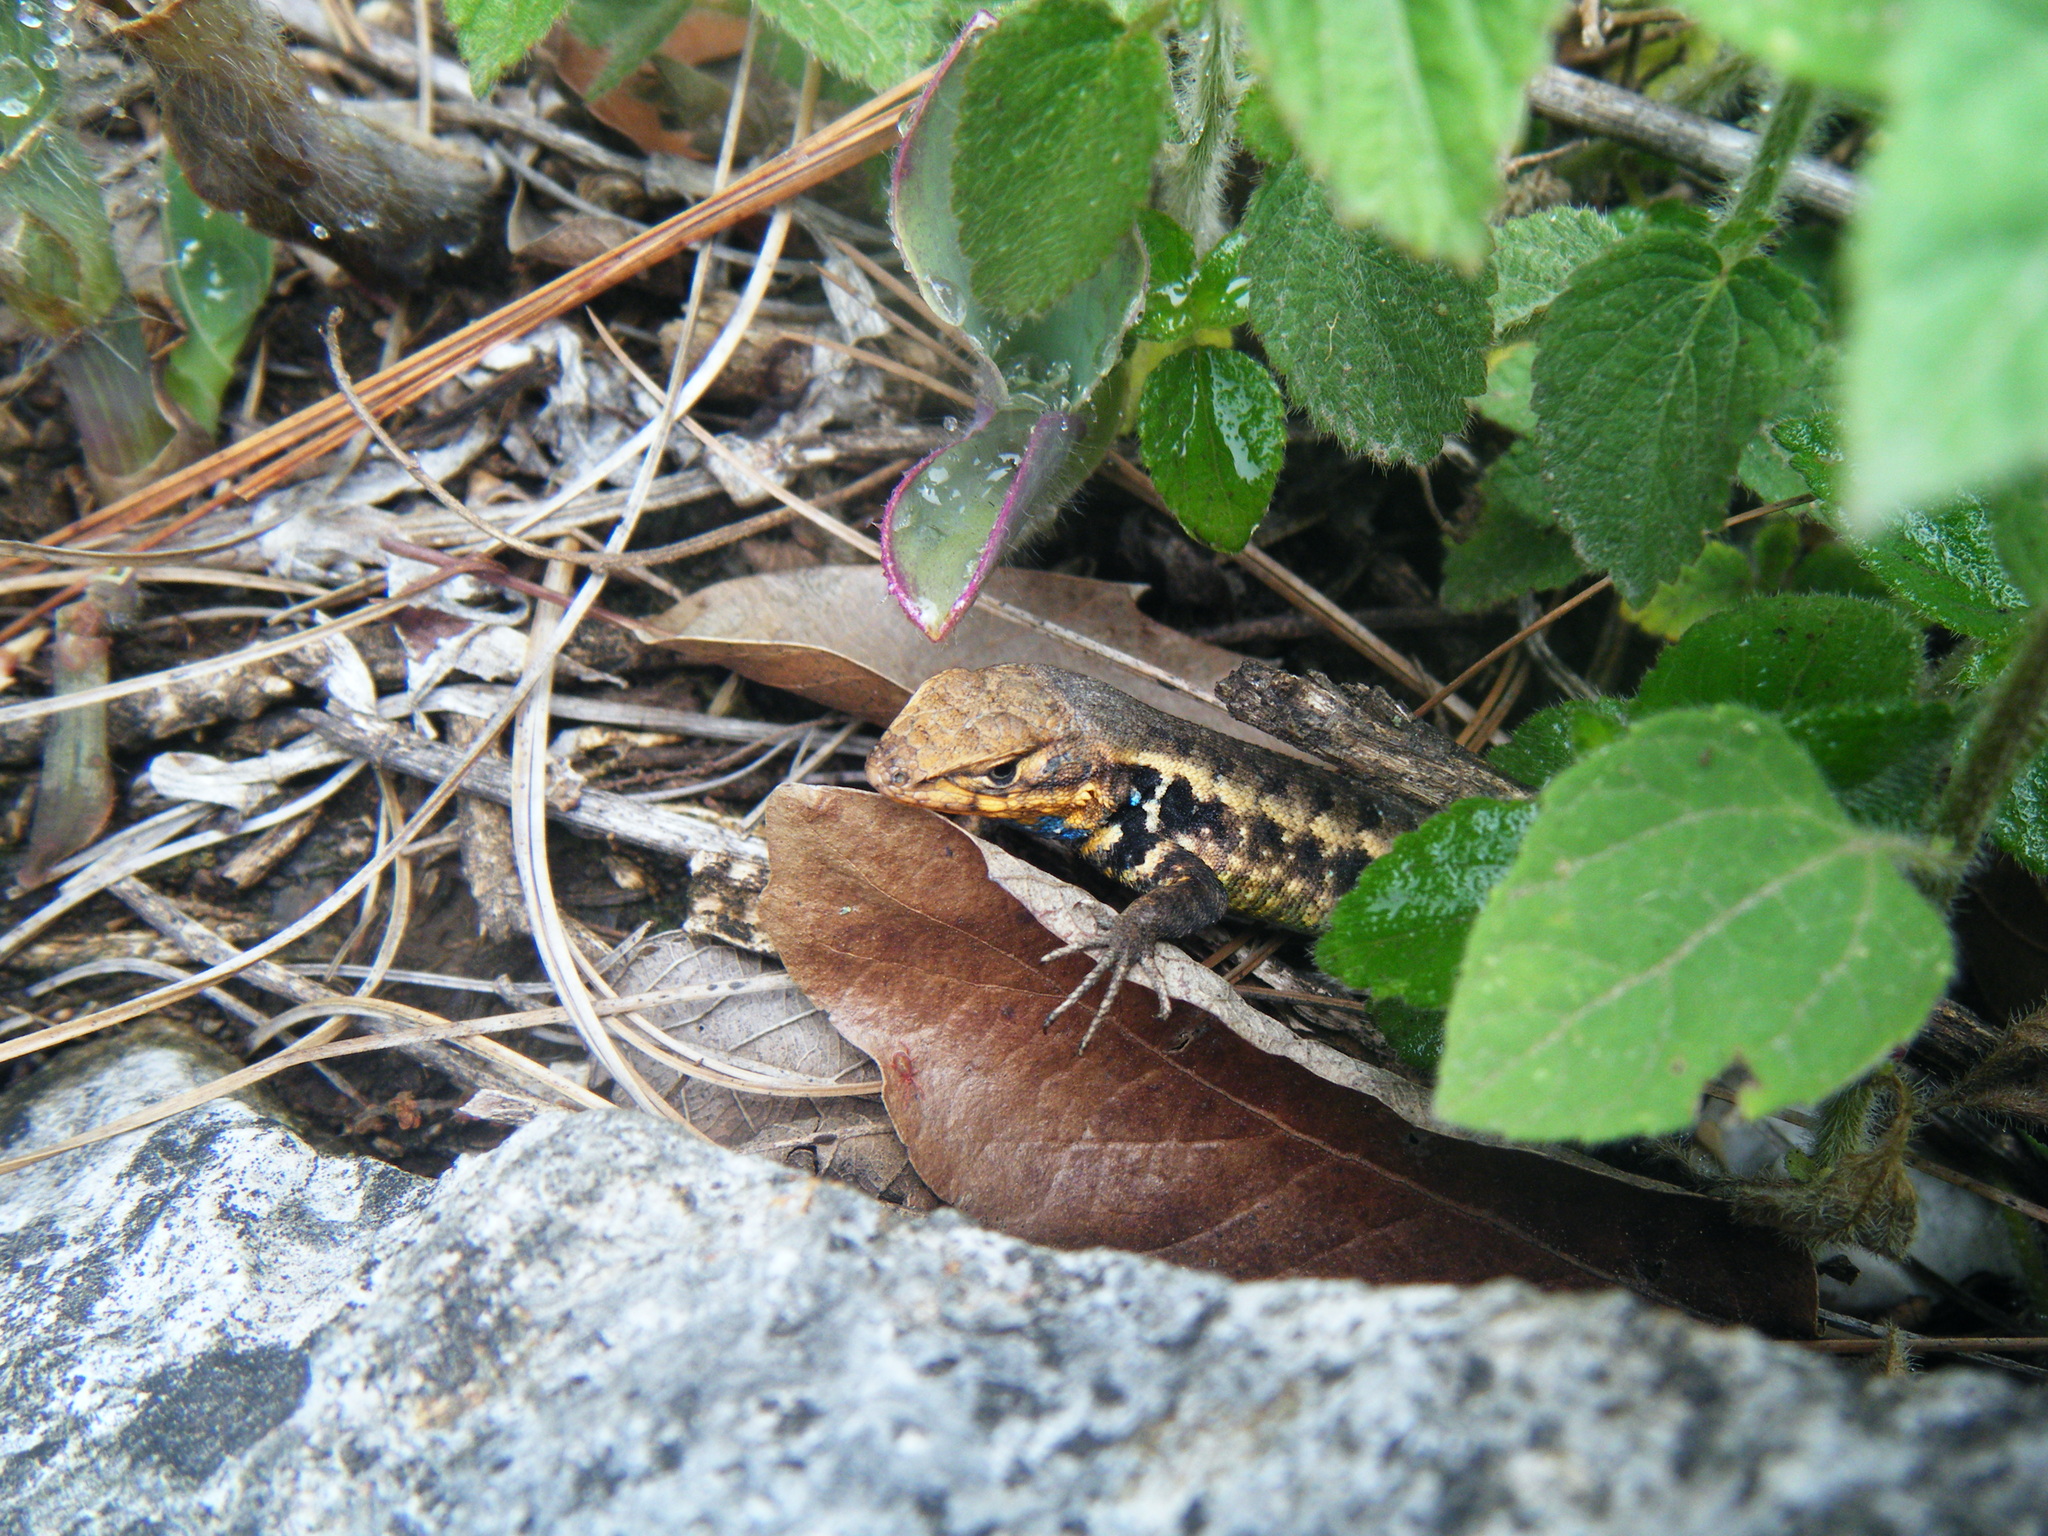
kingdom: Animalia
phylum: Chordata
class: Squamata
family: Phrynosomatidae
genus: Sceloporus
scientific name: Sceloporus parvus
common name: Bluebelly lizard
